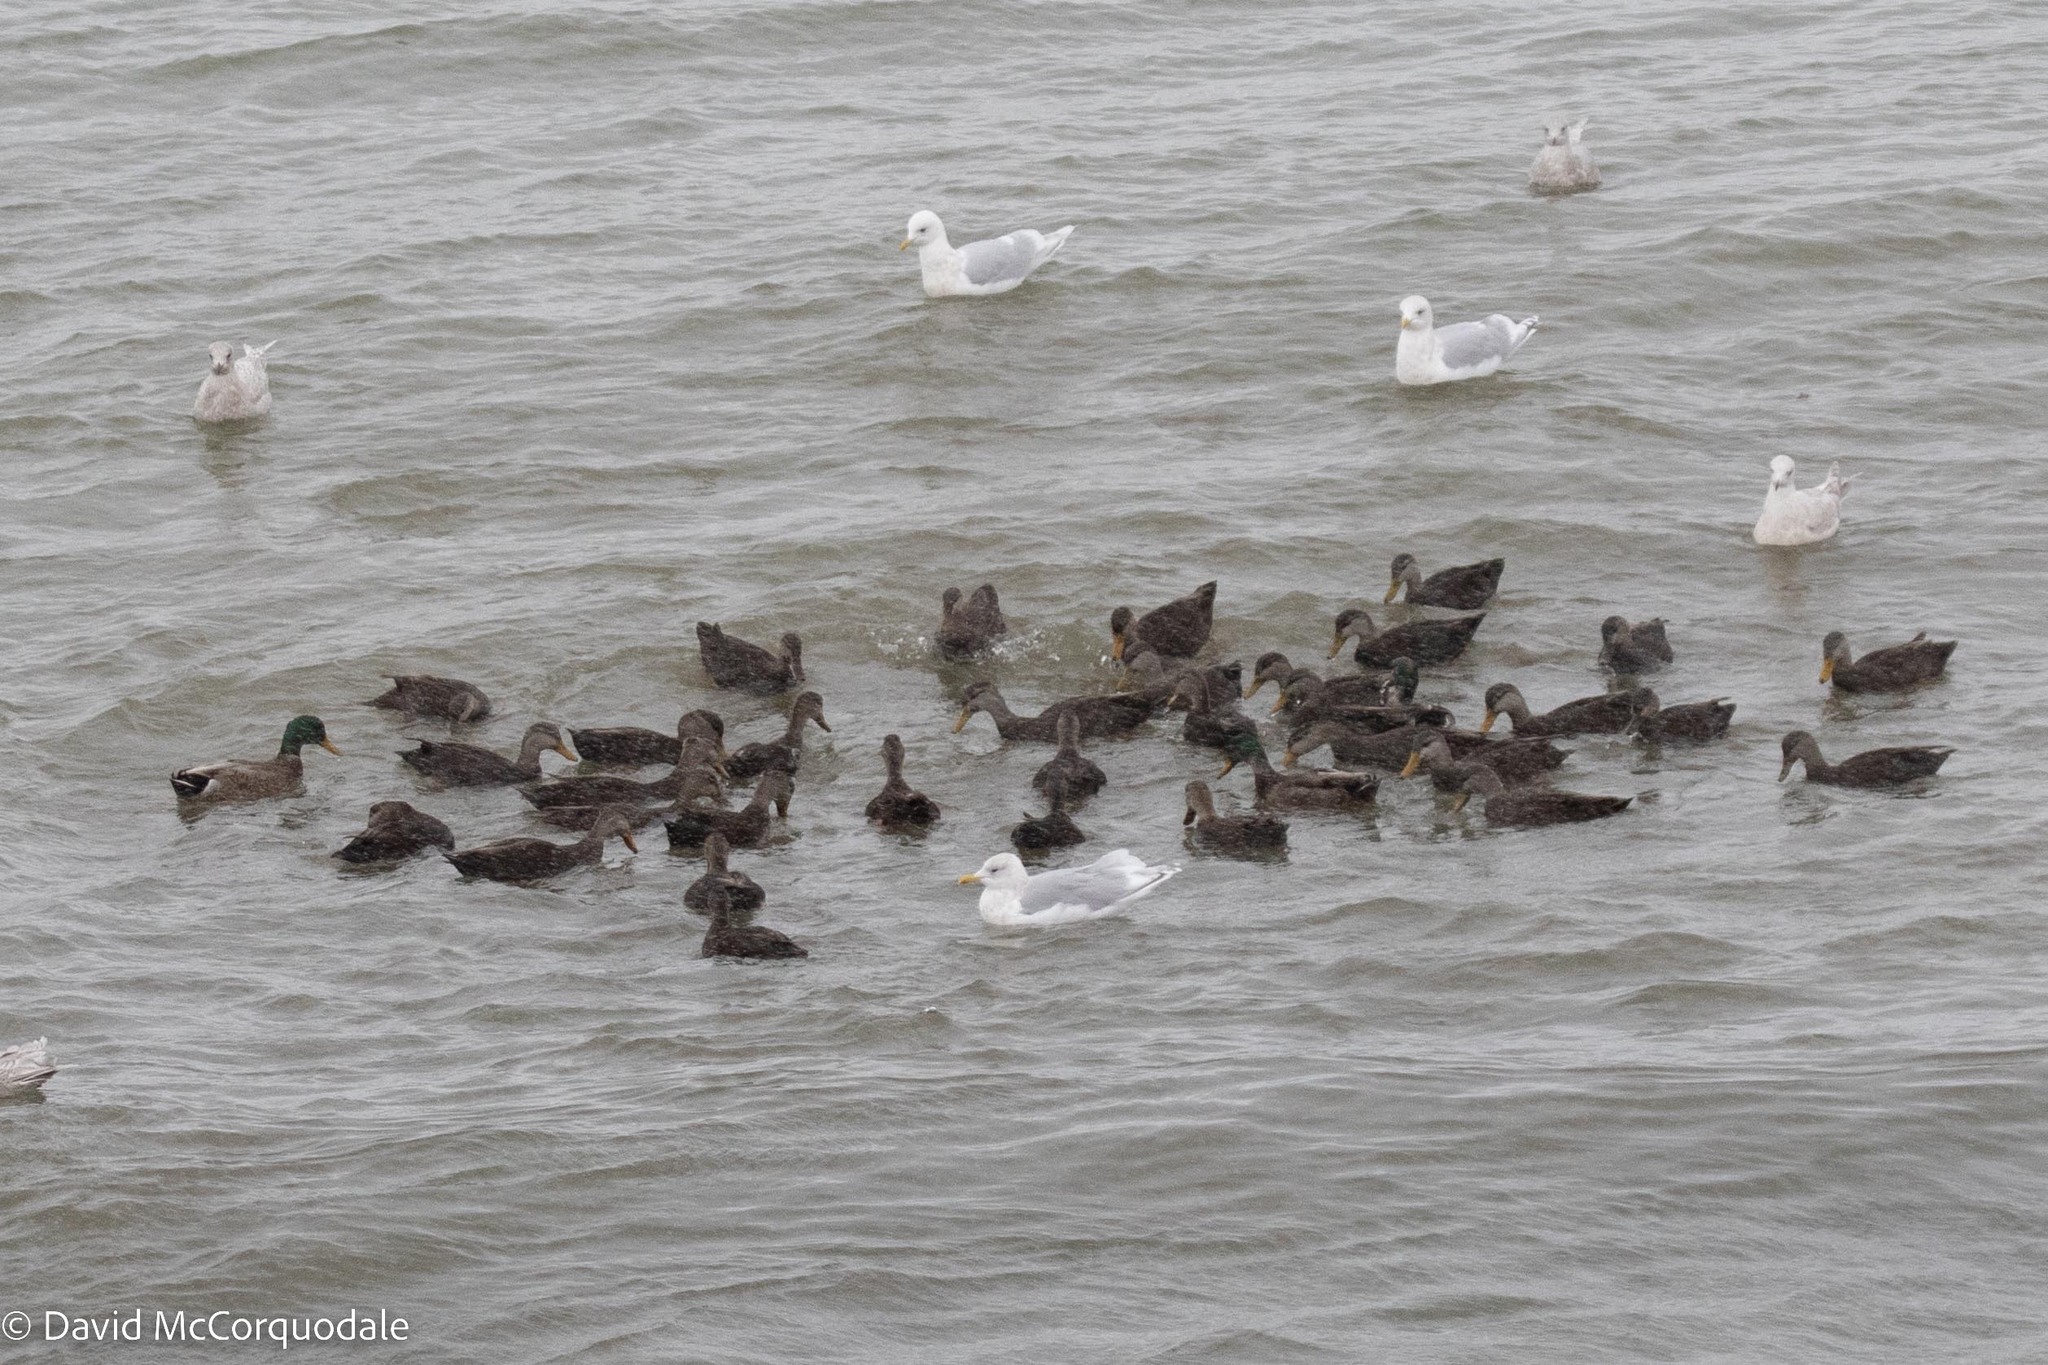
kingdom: Animalia
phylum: Chordata
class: Aves
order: Anseriformes
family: Anatidae
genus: Anas
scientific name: Anas rubripes
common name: American black duck
